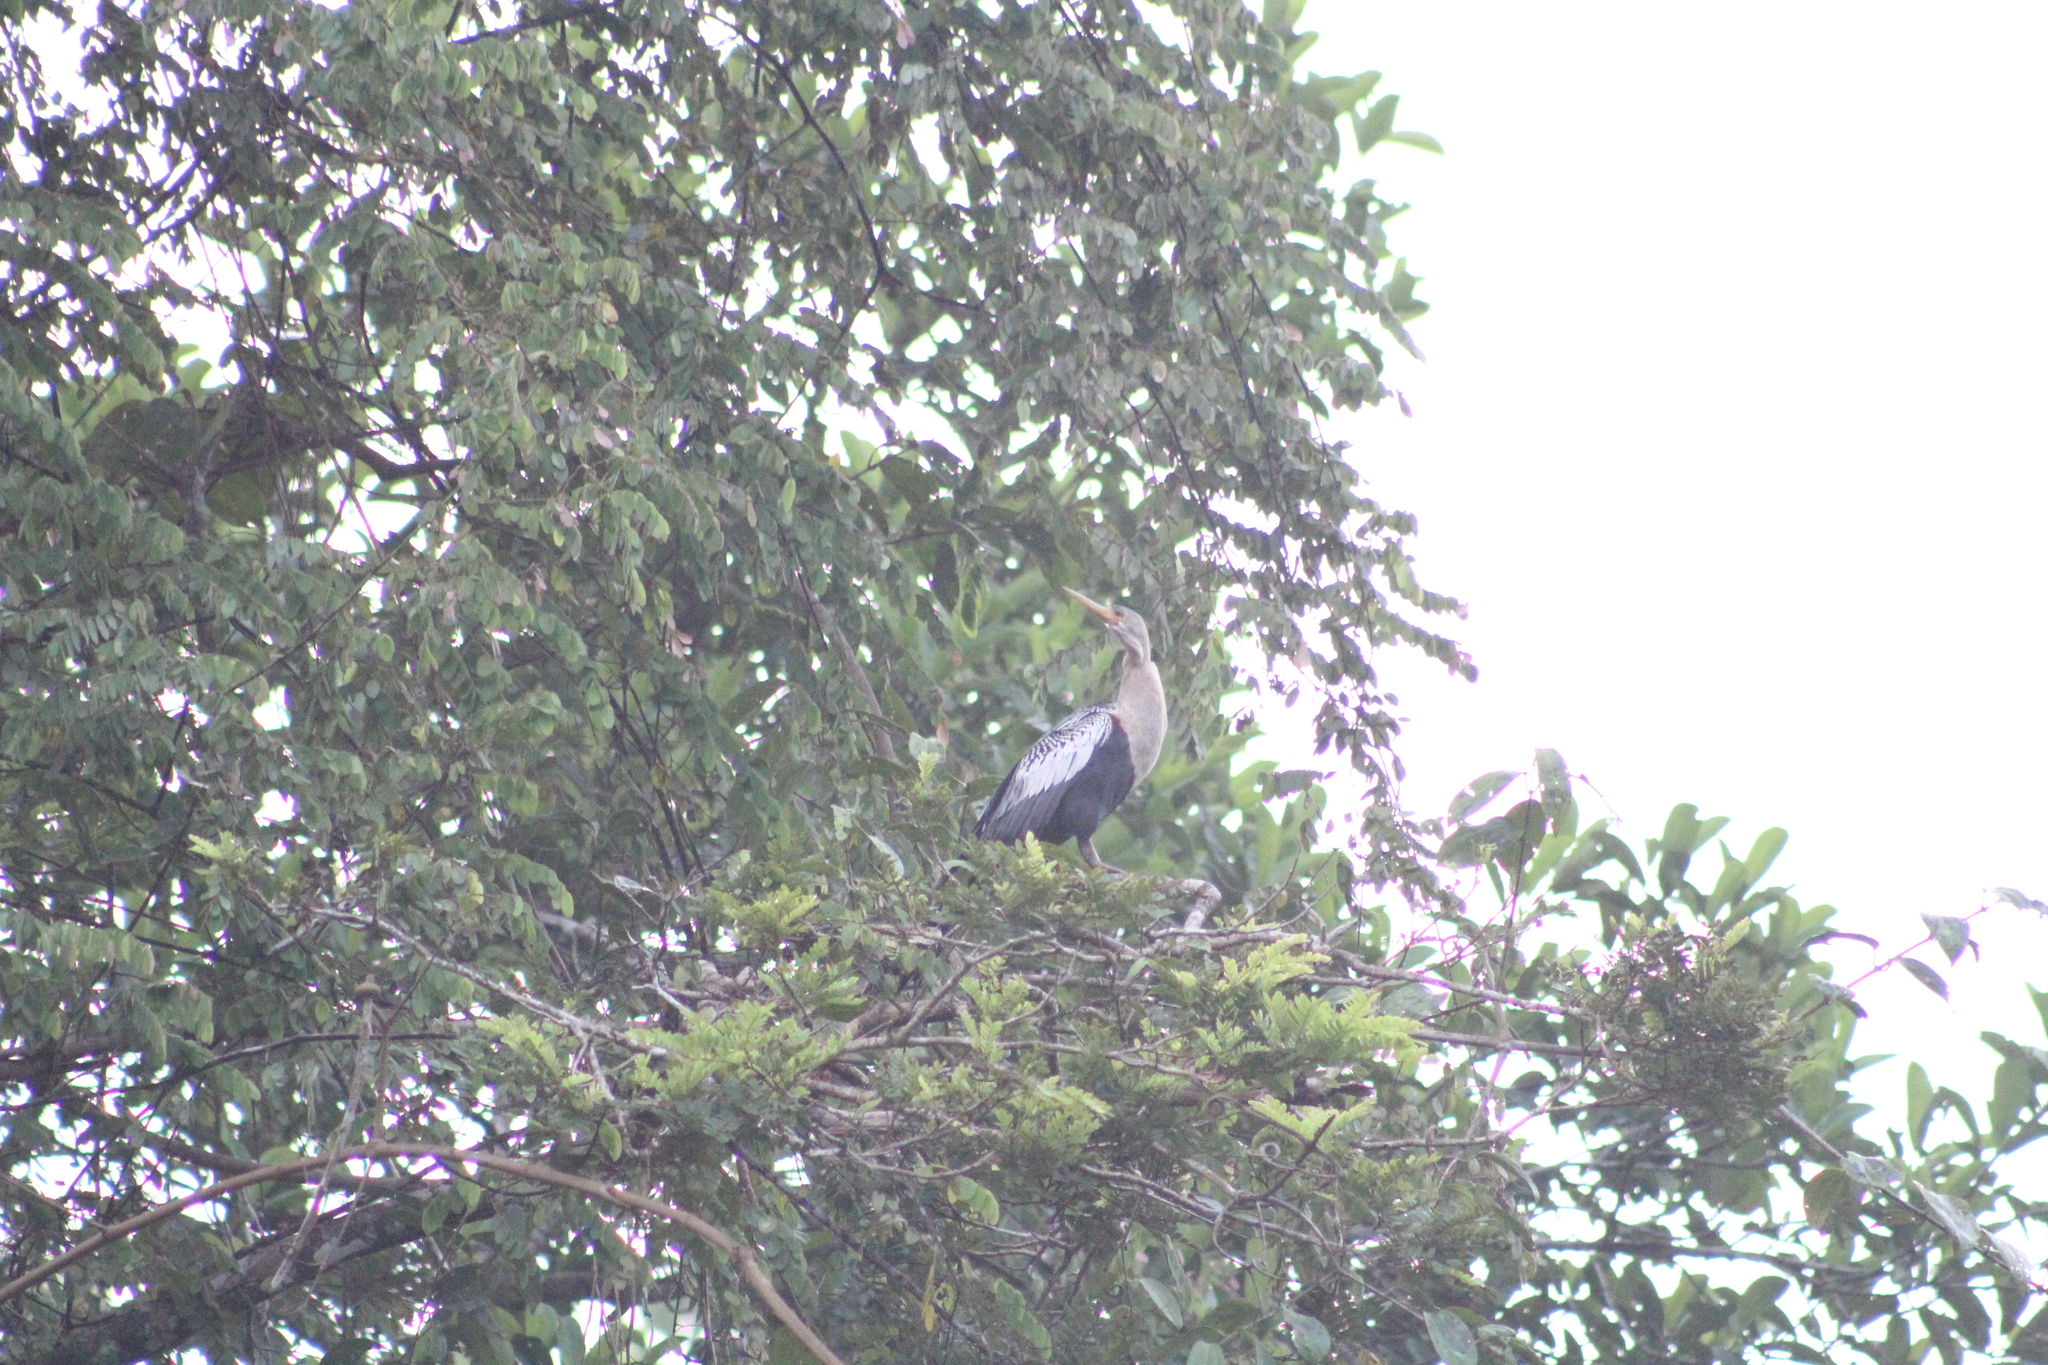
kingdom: Animalia
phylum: Chordata
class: Aves
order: Suliformes
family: Anhingidae
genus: Anhinga
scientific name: Anhinga anhinga
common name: Anhinga
